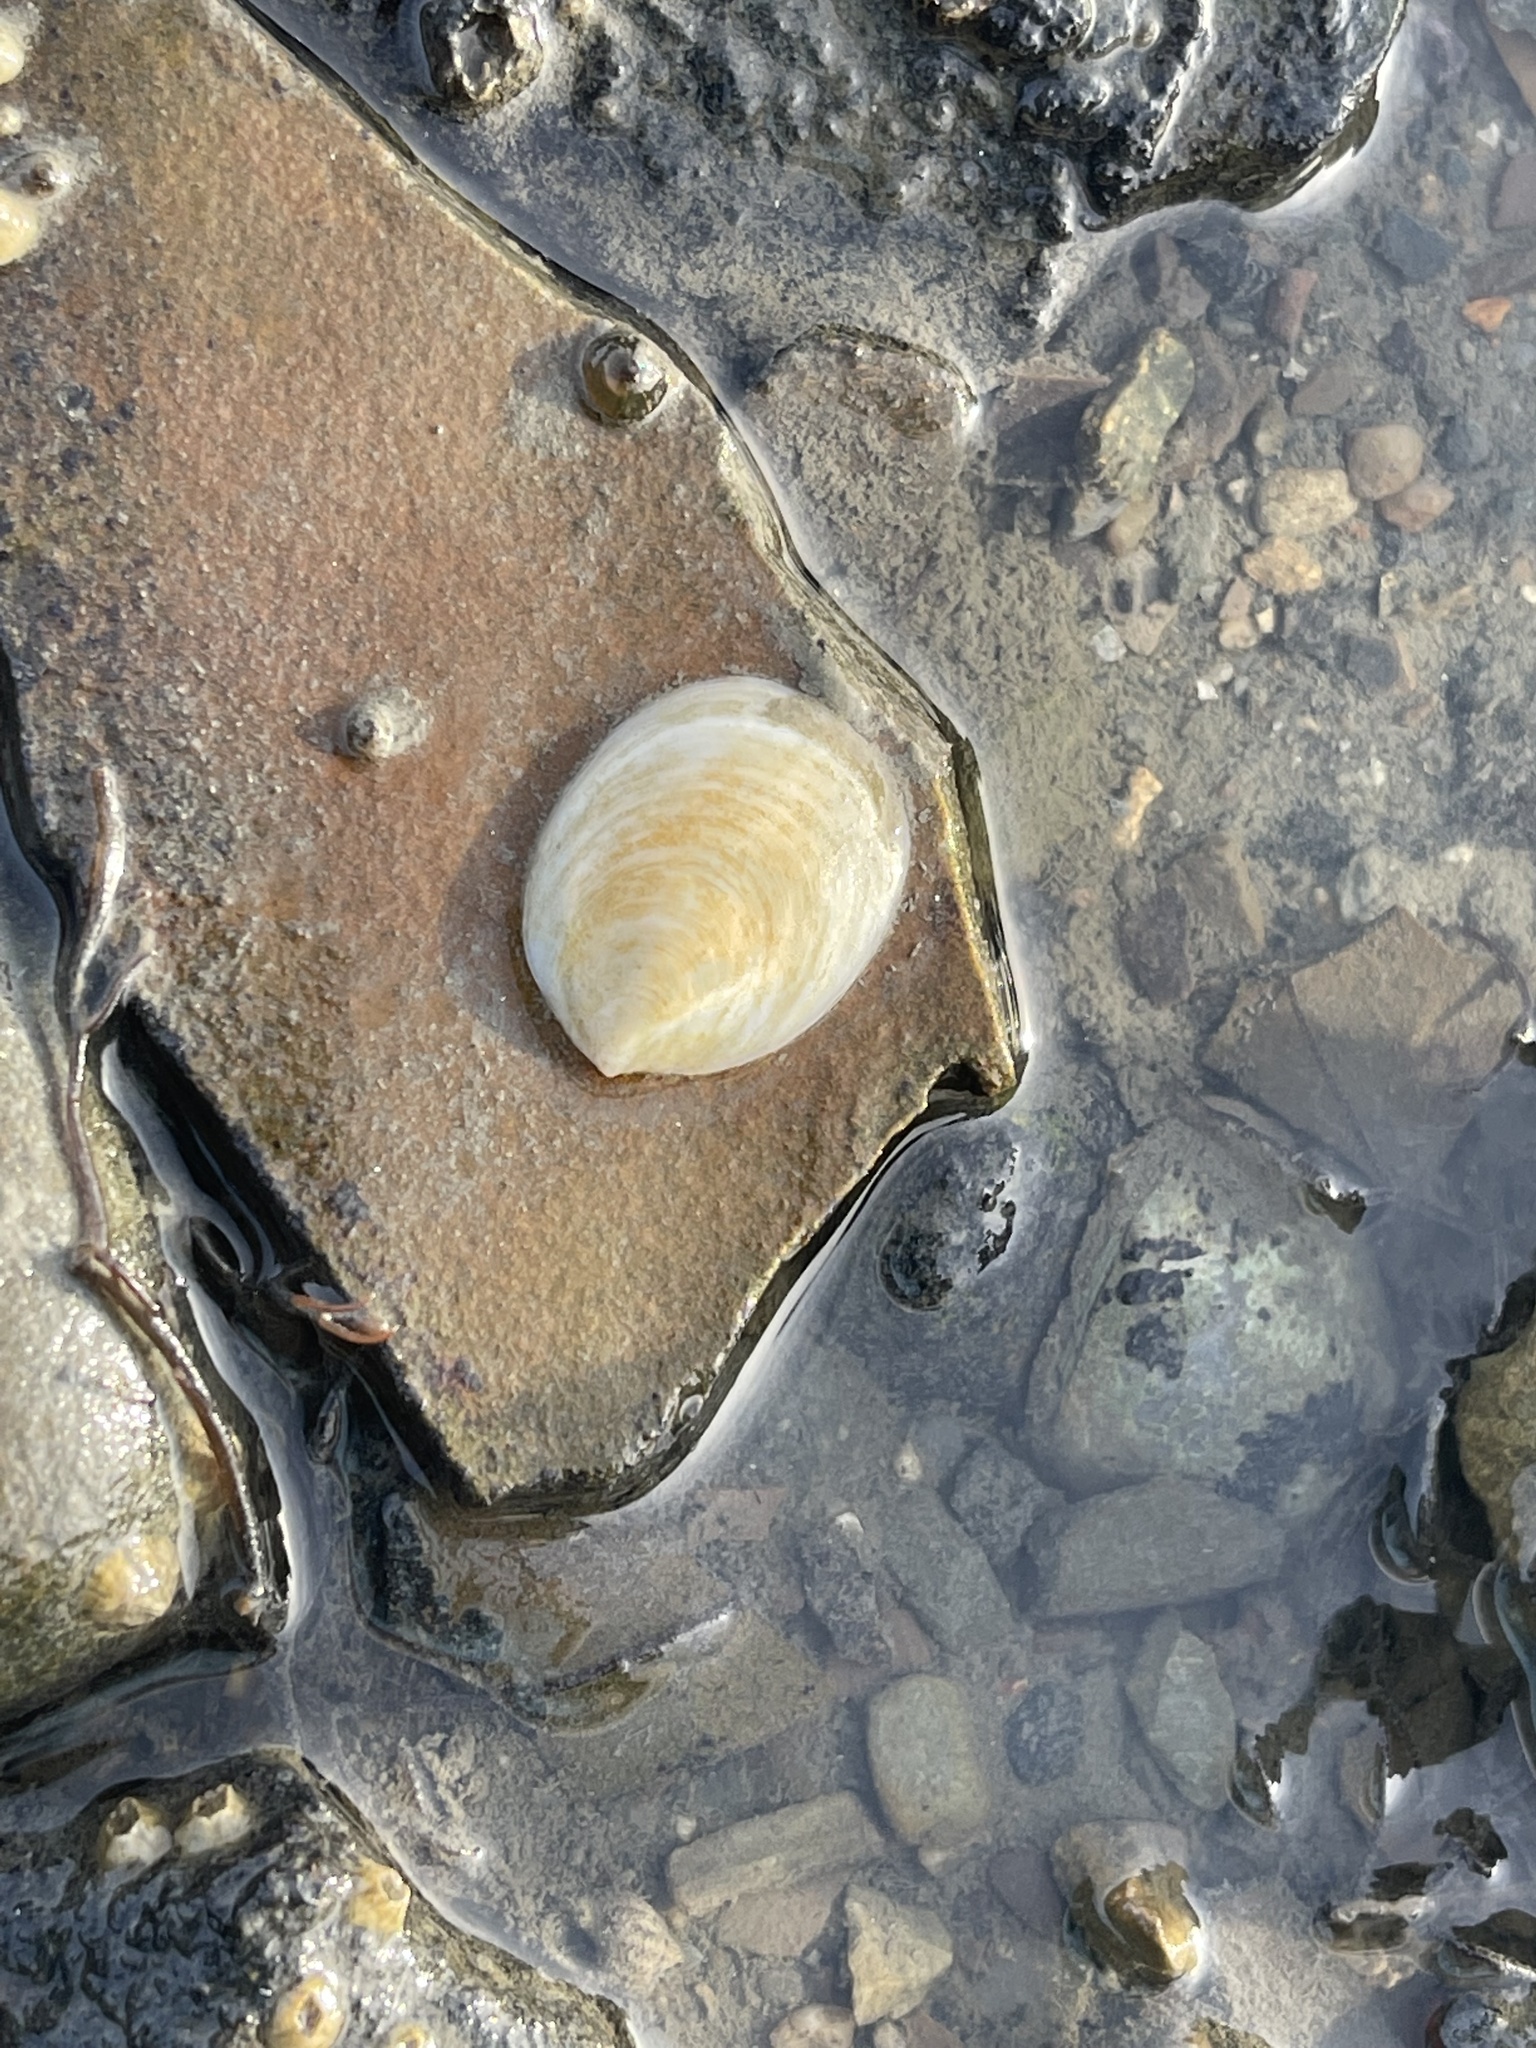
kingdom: Animalia
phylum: Mollusca
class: Gastropoda
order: Littorinimorpha
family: Calyptraeidae
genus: Crepidula
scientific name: Crepidula plana
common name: Eastern white slippersnail
